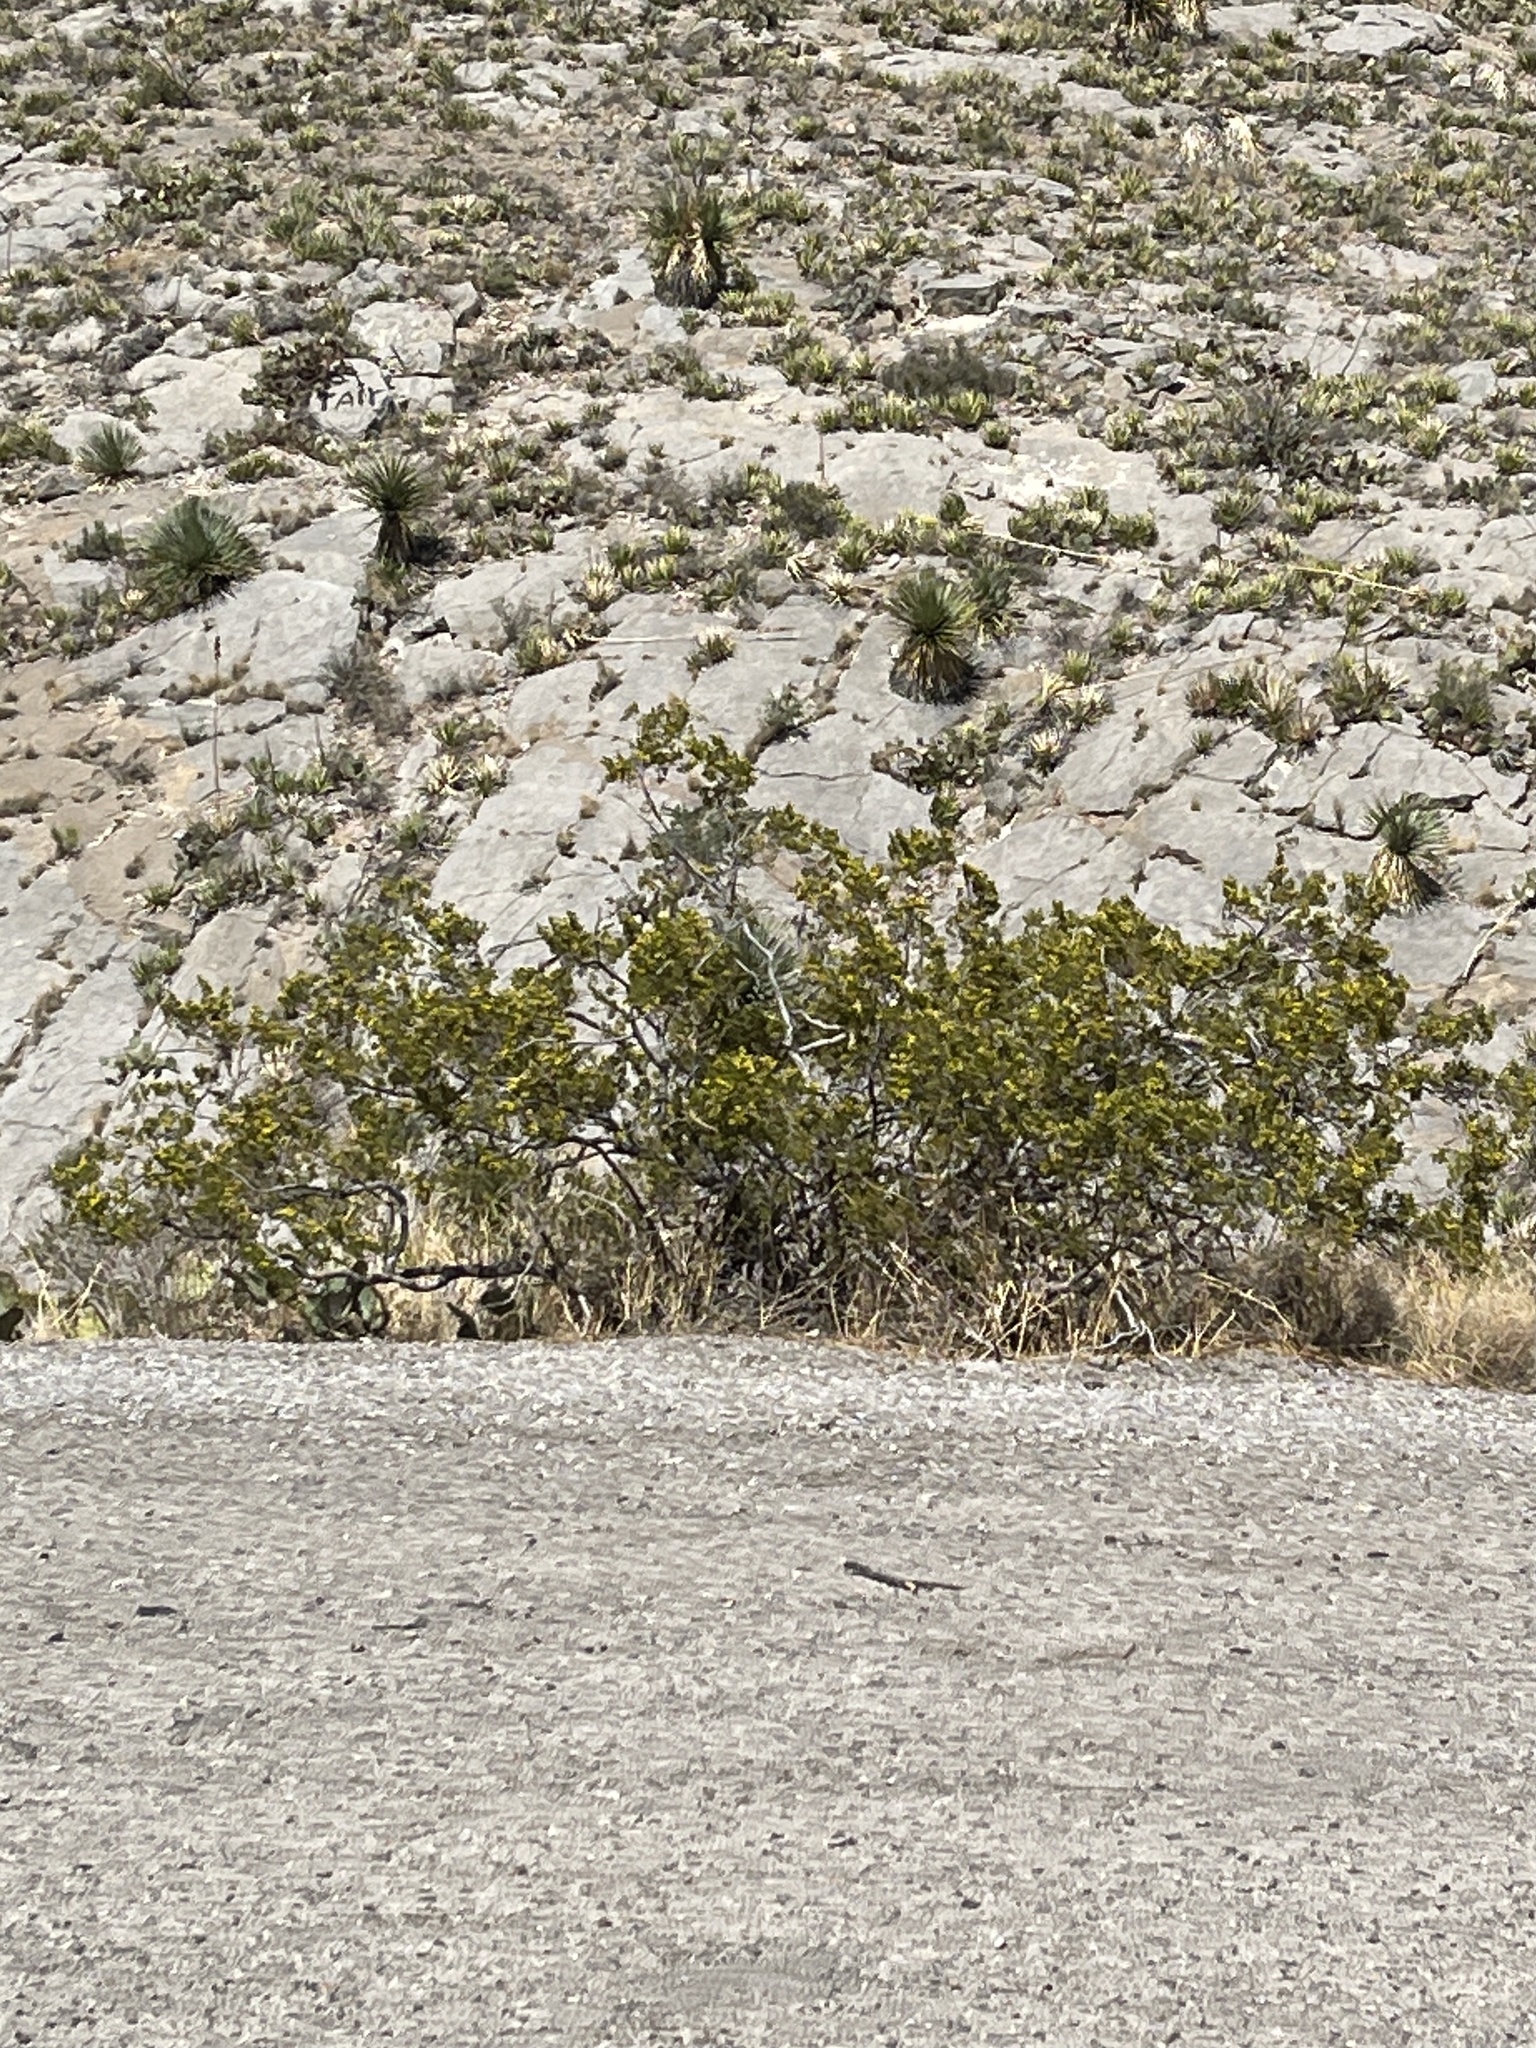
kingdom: Plantae
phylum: Tracheophyta
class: Magnoliopsida
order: Zygophyllales
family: Zygophyllaceae
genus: Larrea
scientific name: Larrea tridentata
